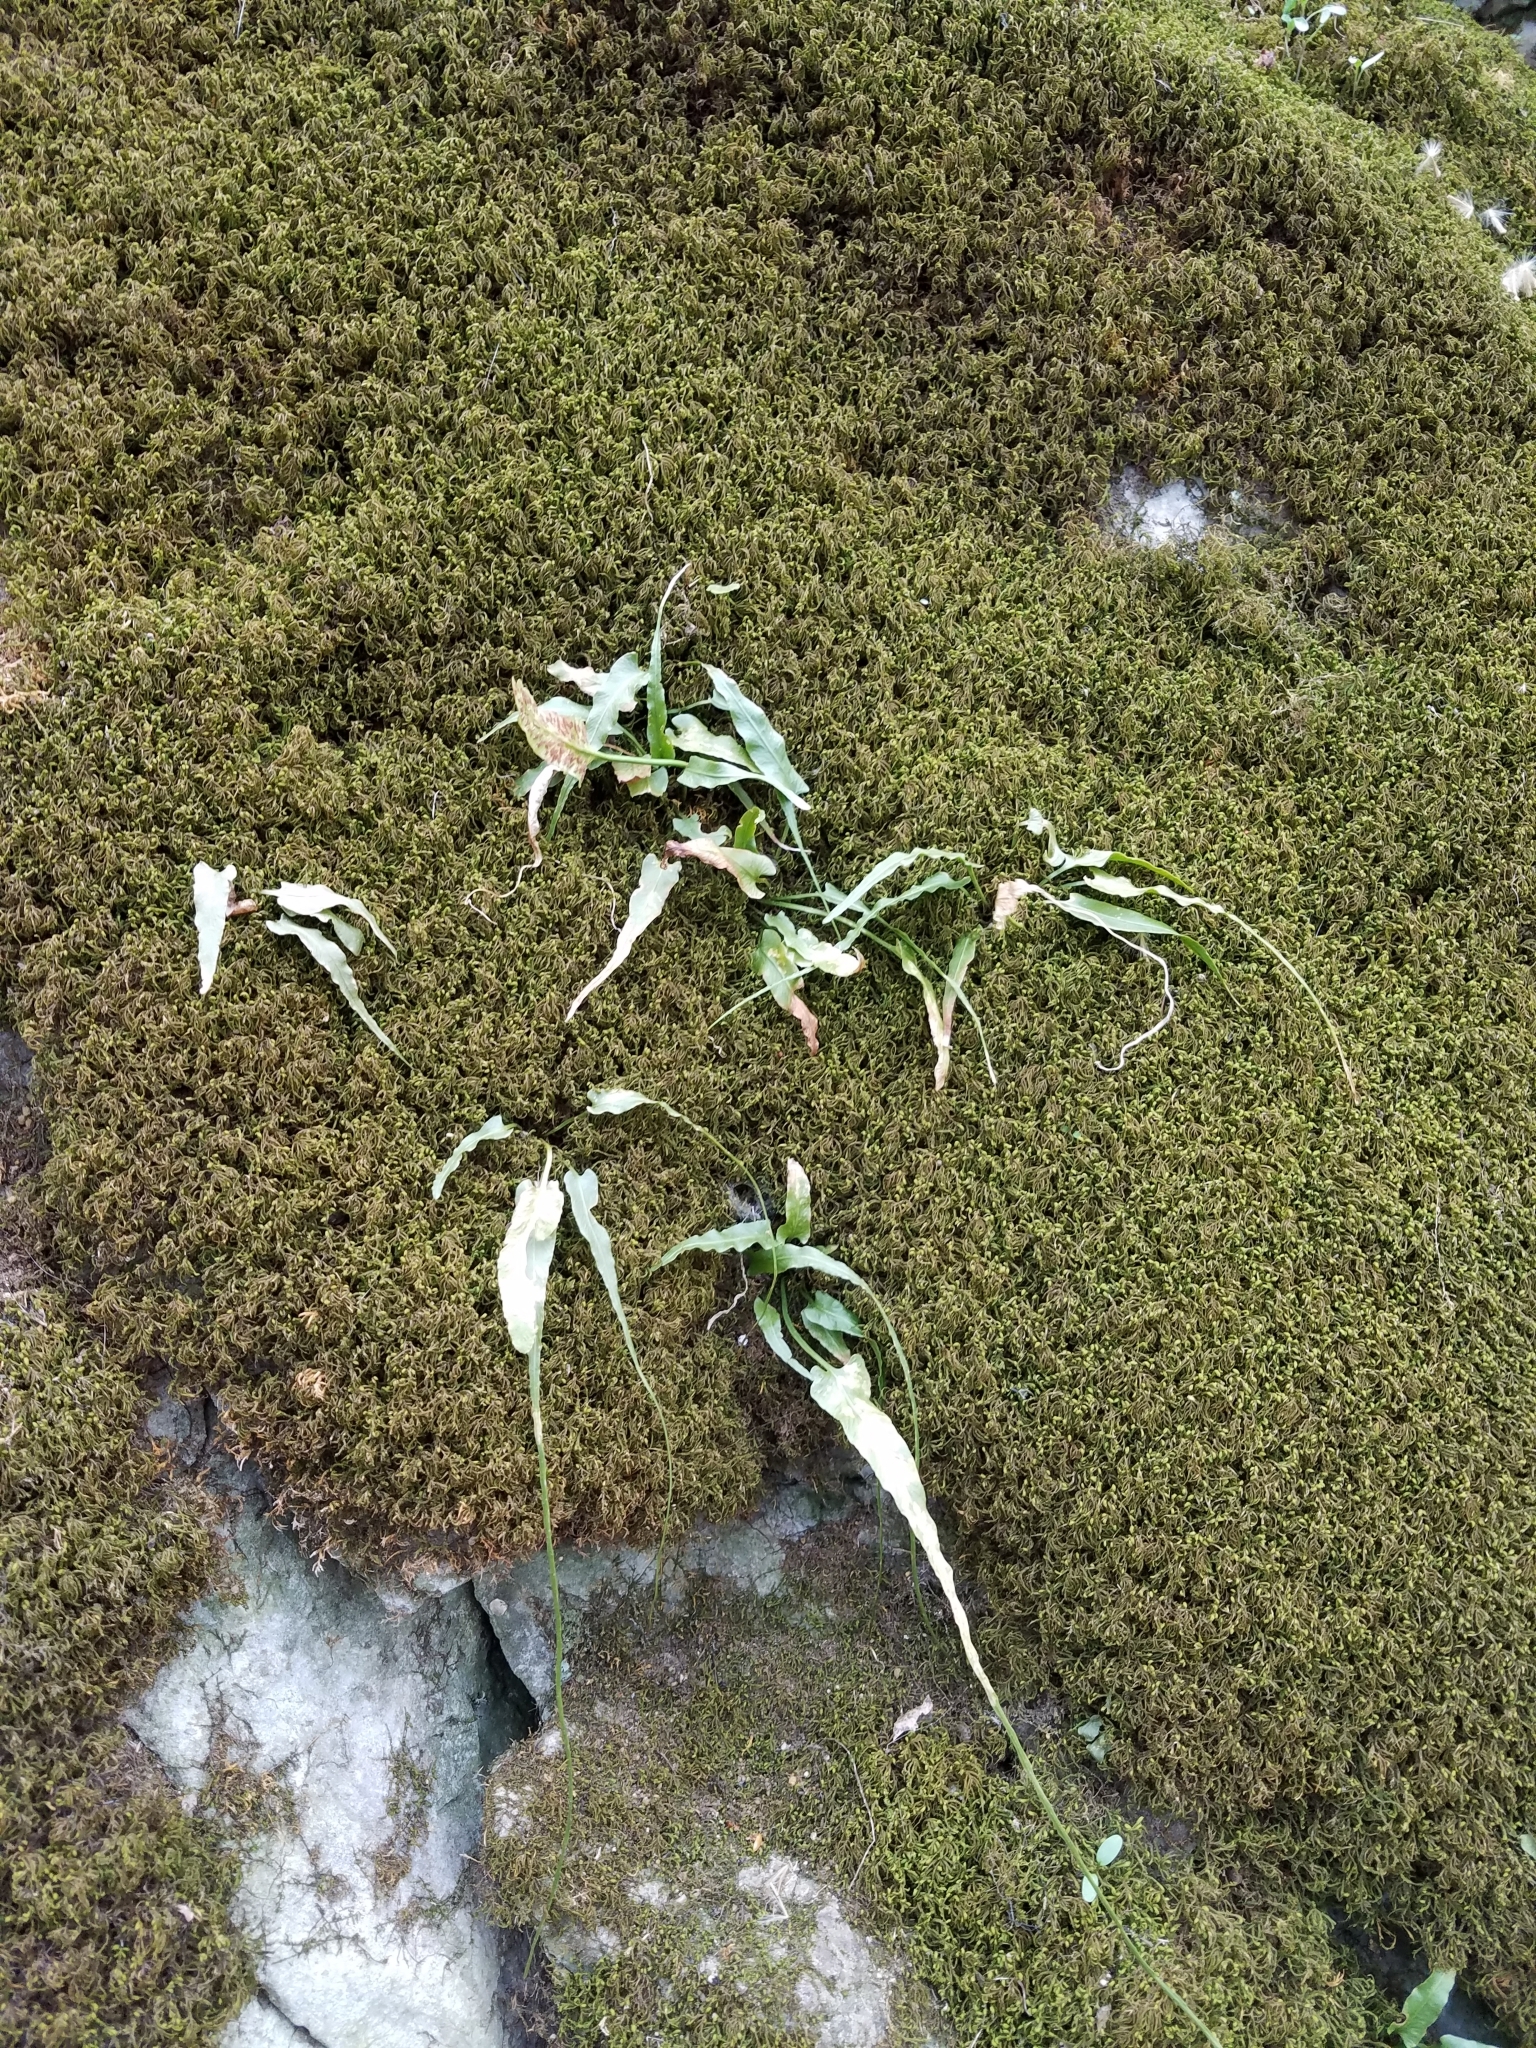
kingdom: Plantae
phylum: Tracheophyta
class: Polypodiopsida
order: Polypodiales
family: Aspleniaceae
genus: Asplenium
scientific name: Asplenium rhizophyllum
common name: Walking fern
